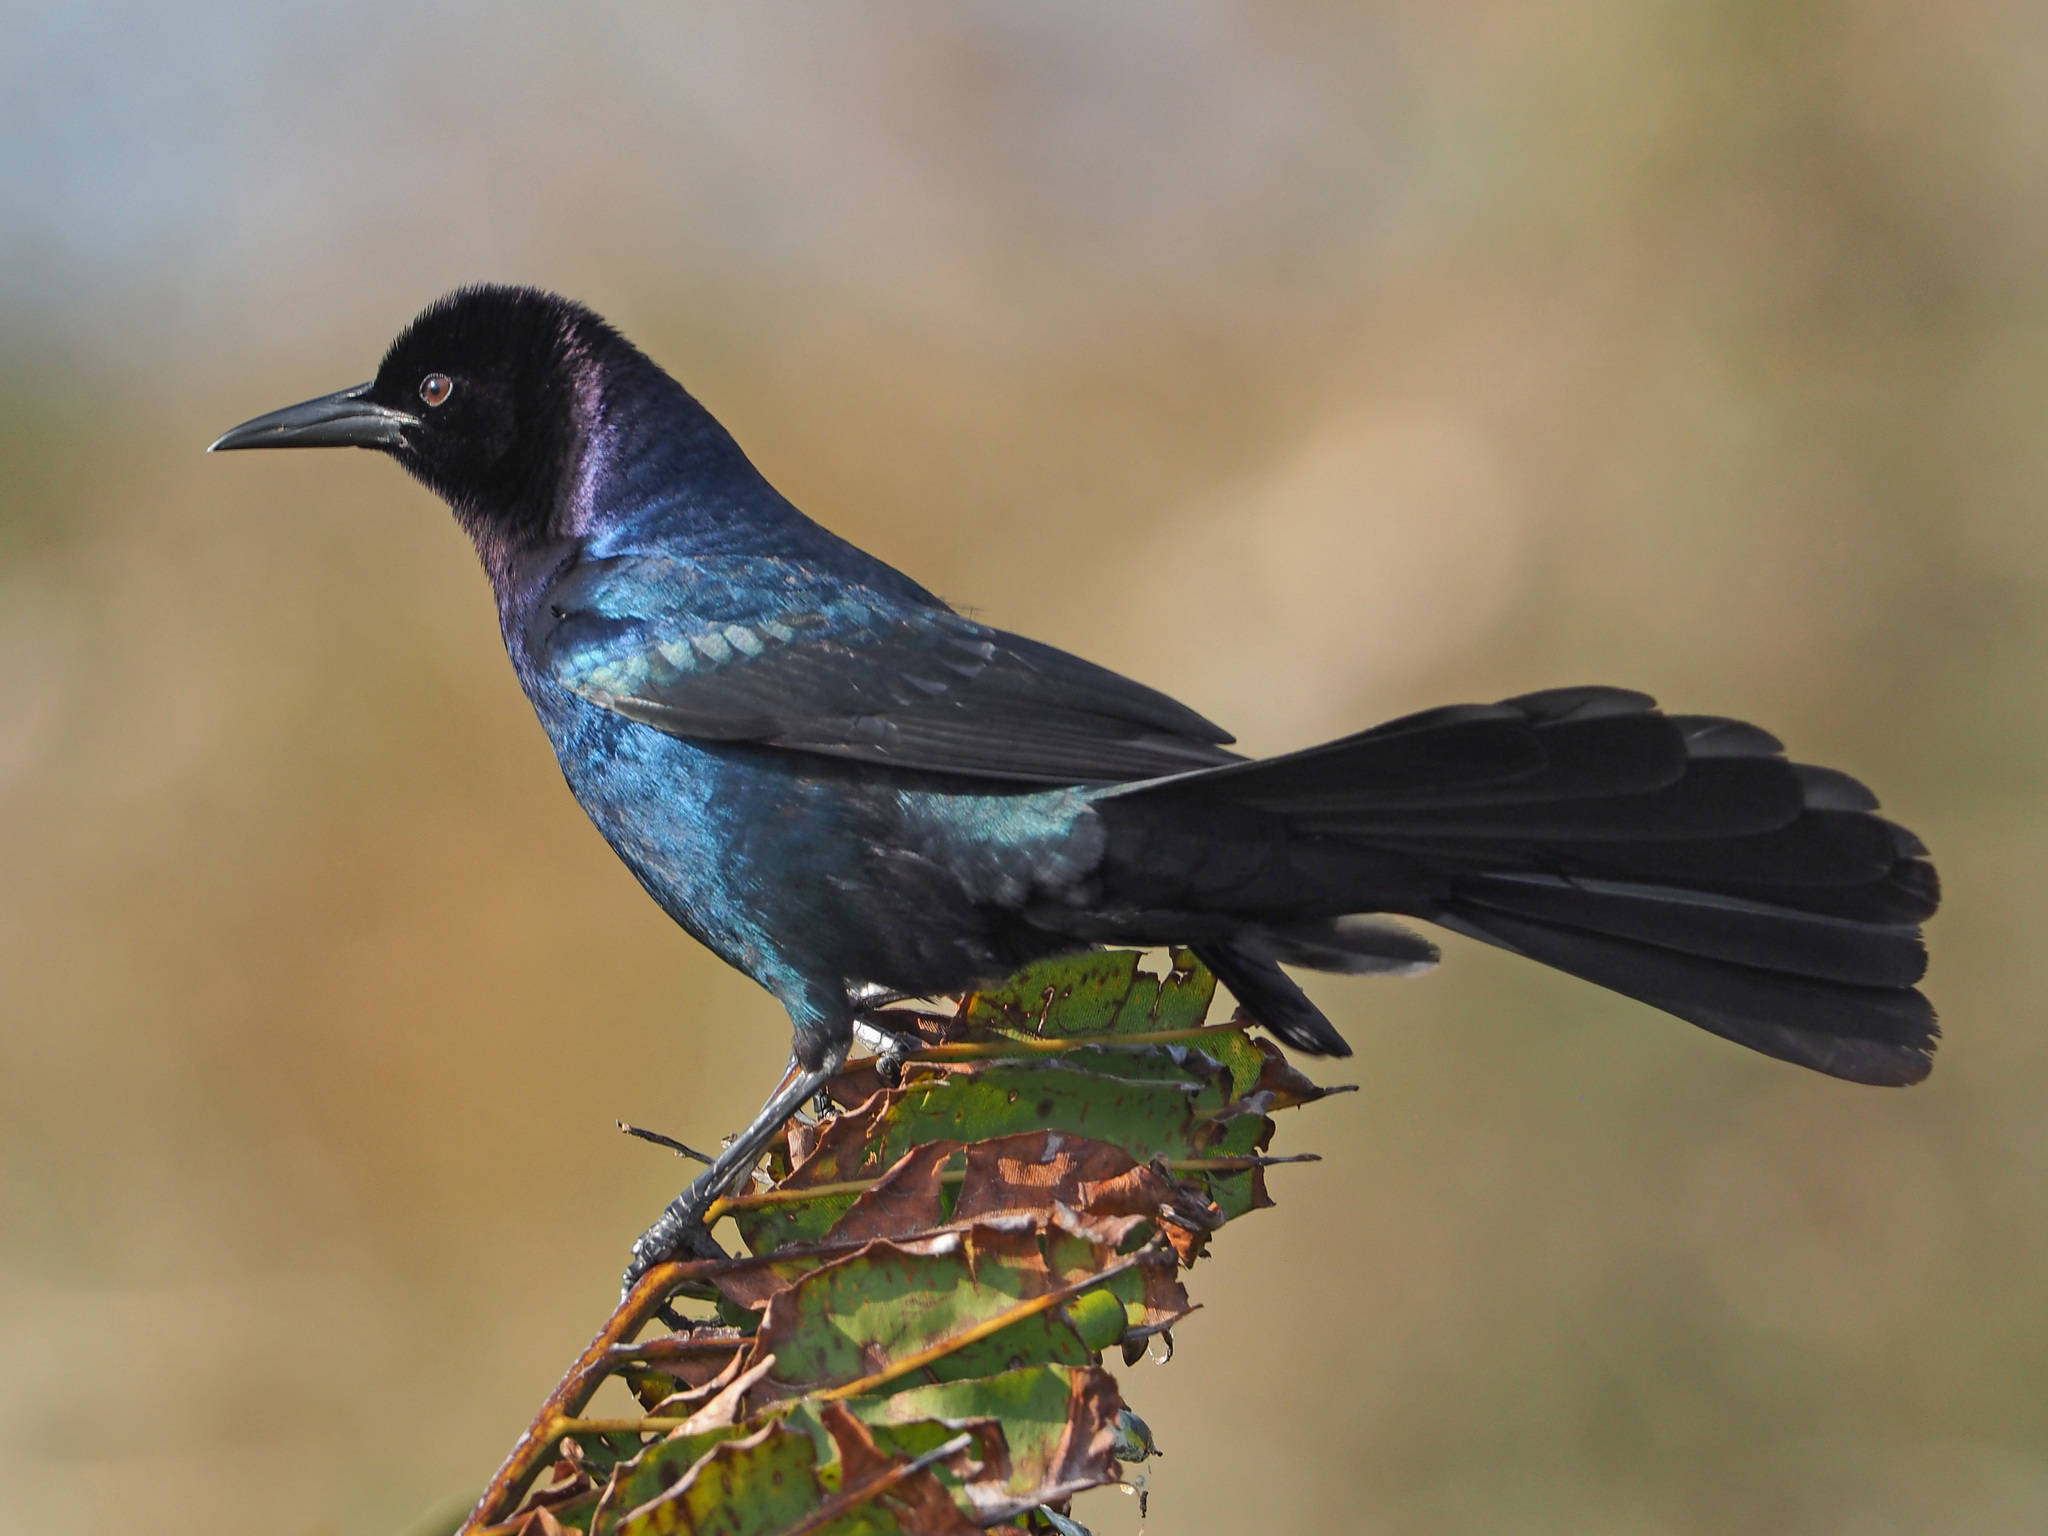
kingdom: Animalia
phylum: Chordata
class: Aves
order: Passeriformes
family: Icteridae
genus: Quiscalus
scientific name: Quiscalus major
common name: Boat-tailed grackle
